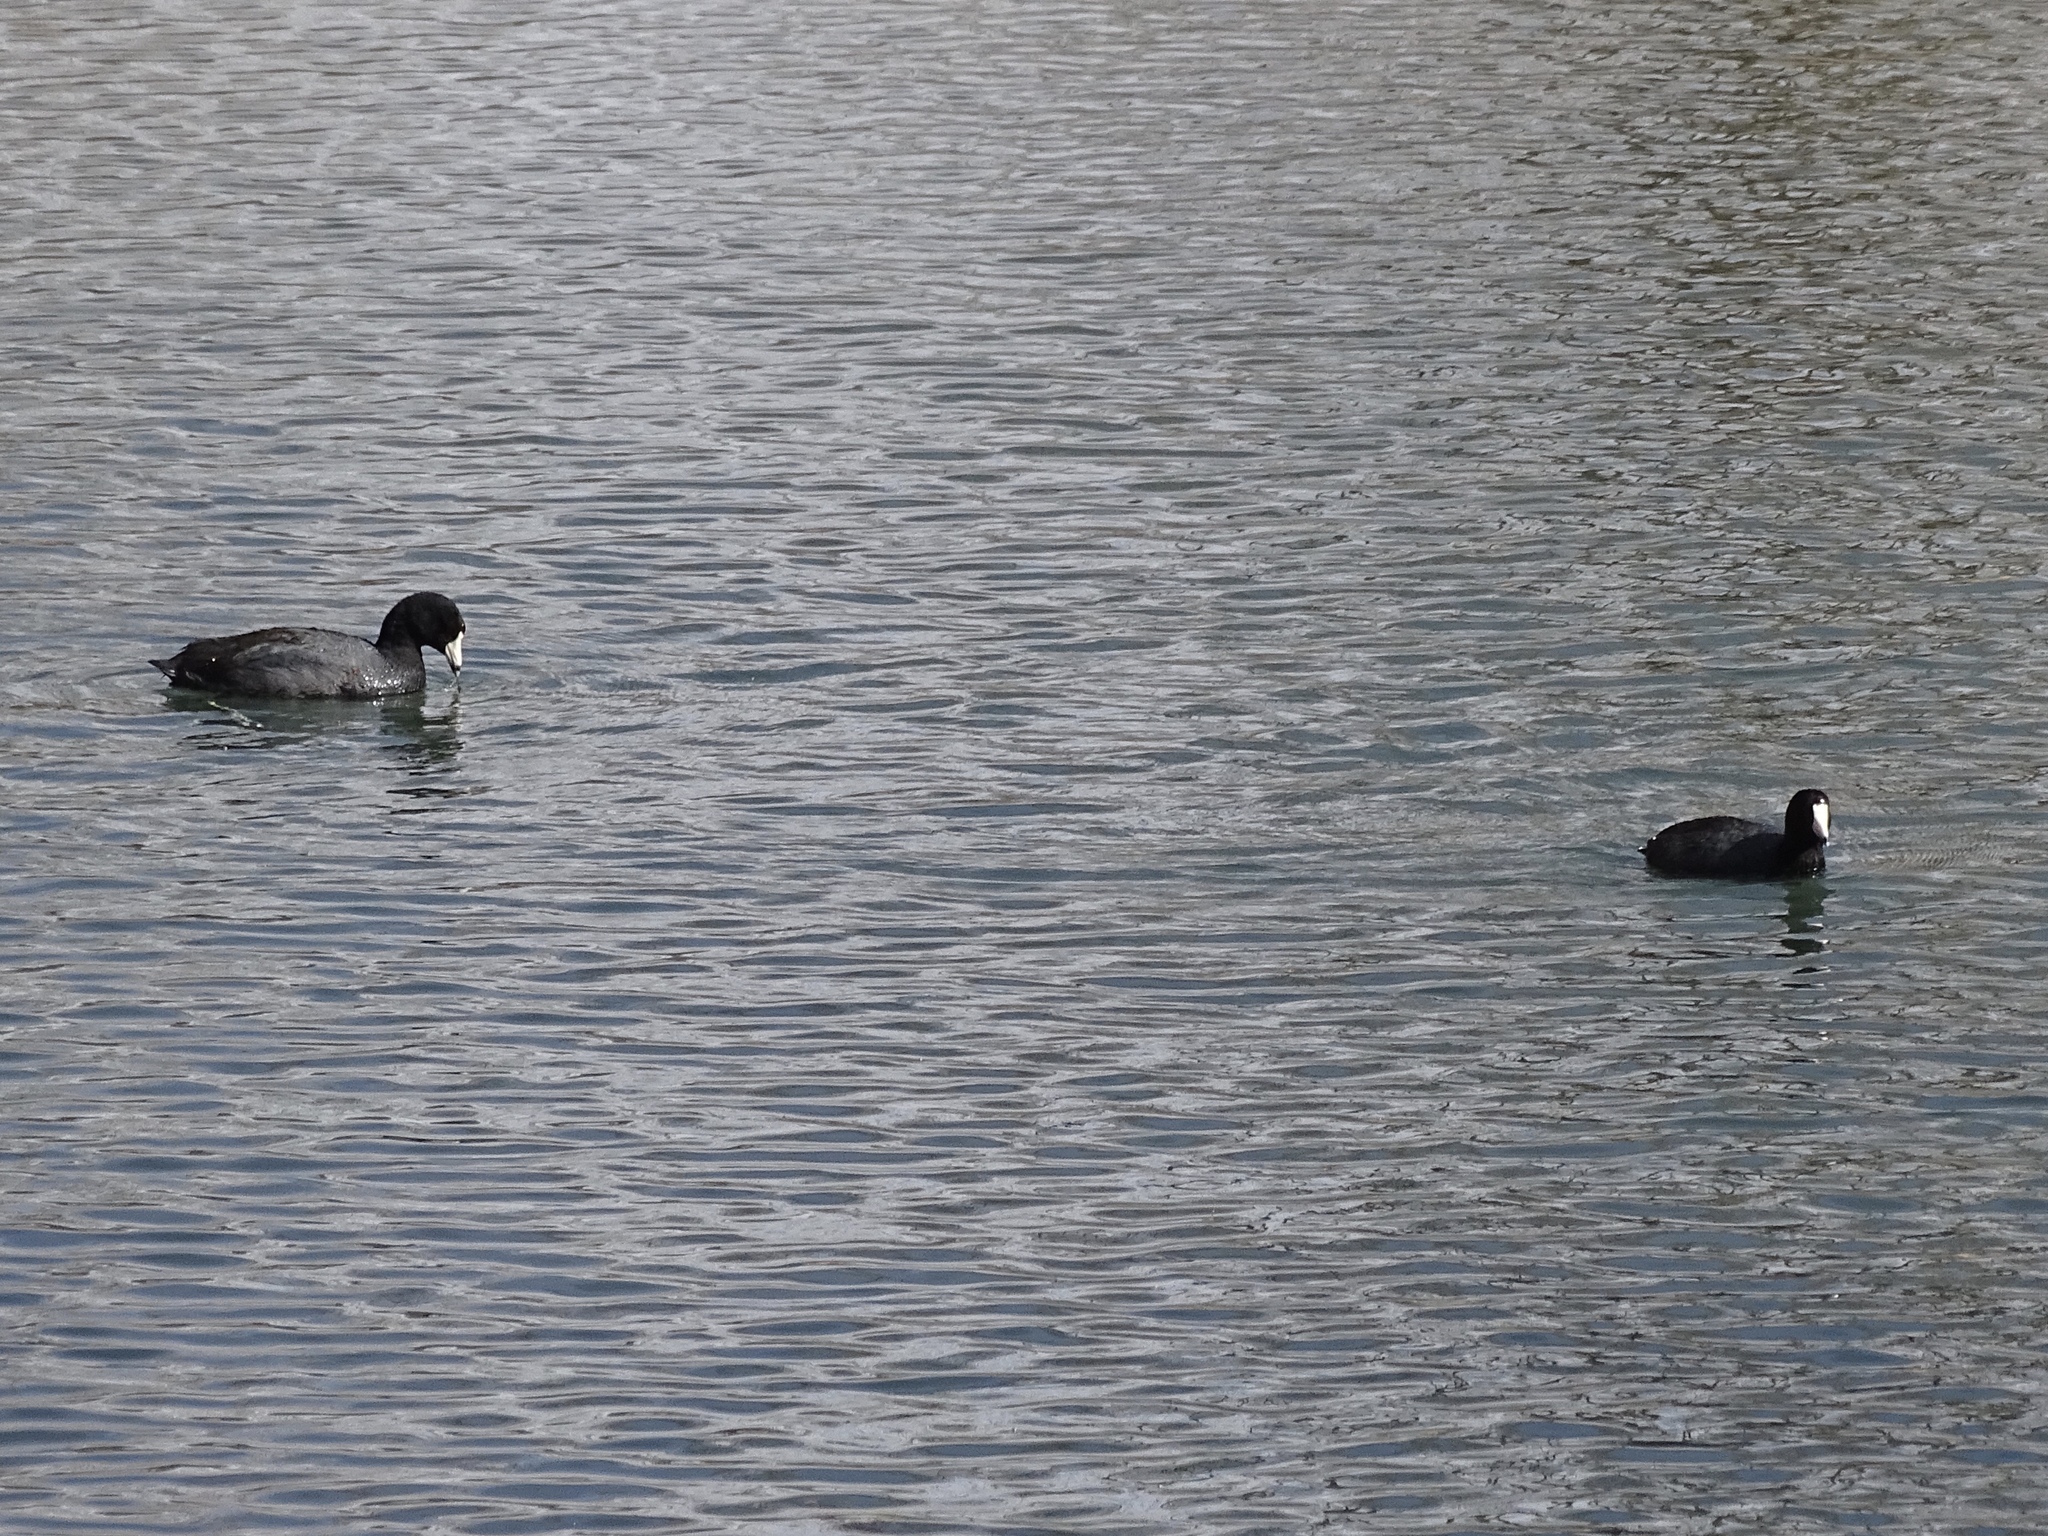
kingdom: Animalia
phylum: Chordata
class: Aves
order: Gruiformes
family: Rallidae
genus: Fulica
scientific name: Fulica americana
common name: American coot
